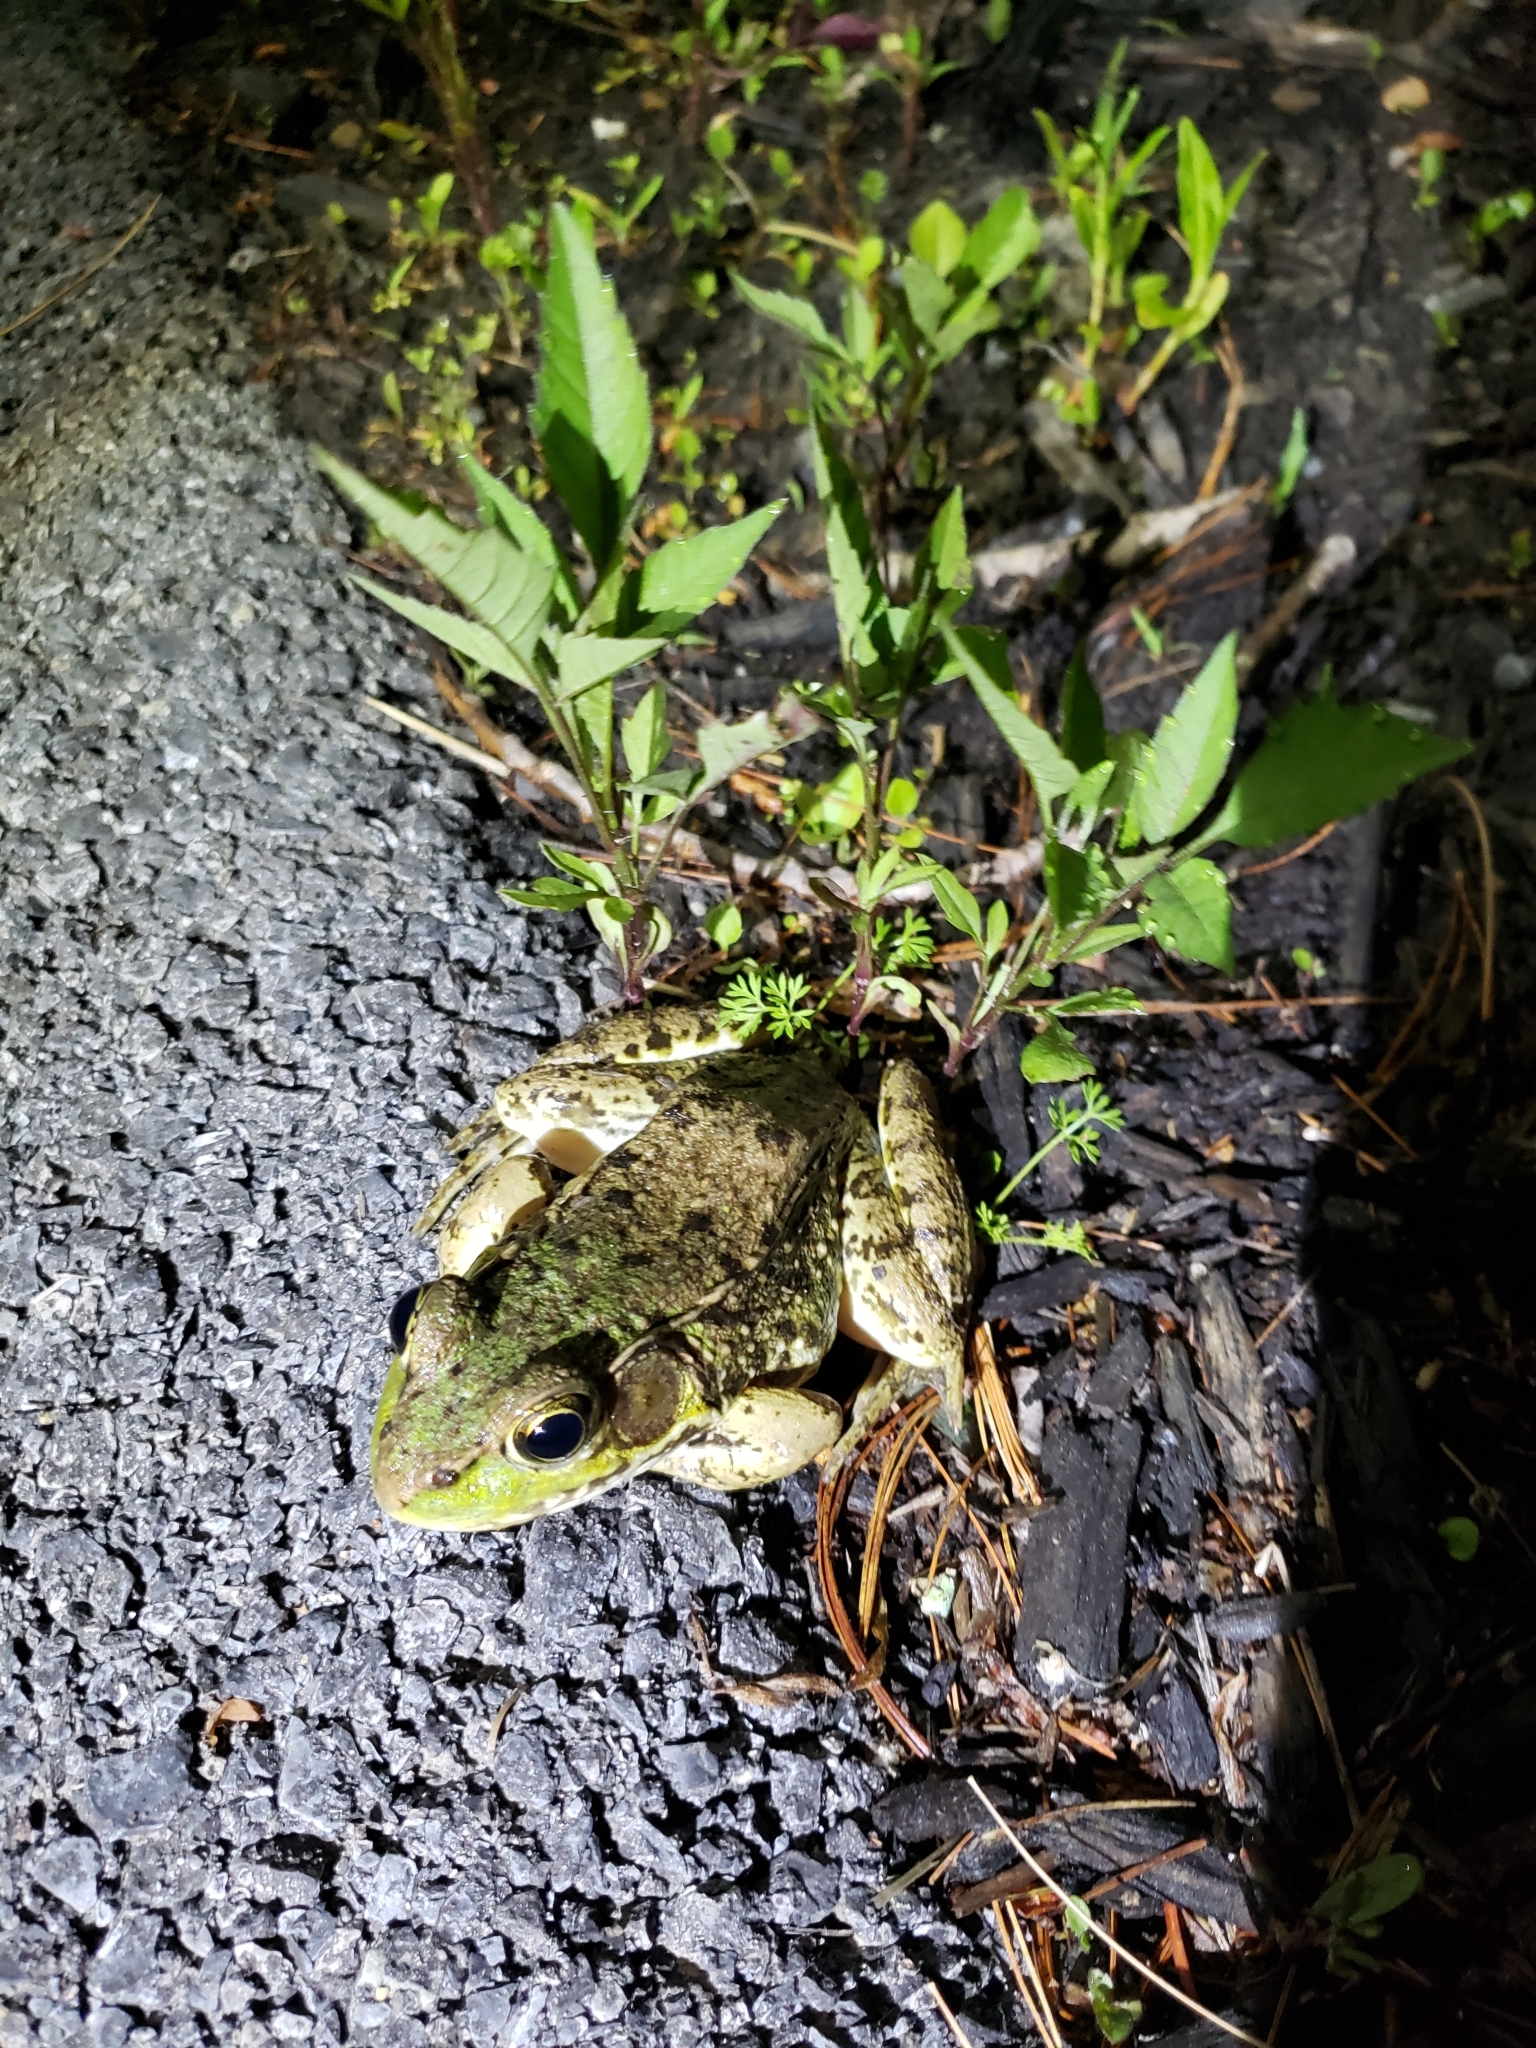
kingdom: Animalia
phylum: Chordata
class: Amphibia
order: Anura
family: Ranidae
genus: Lithobates
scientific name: Lithobates clamitans
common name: Green frog
